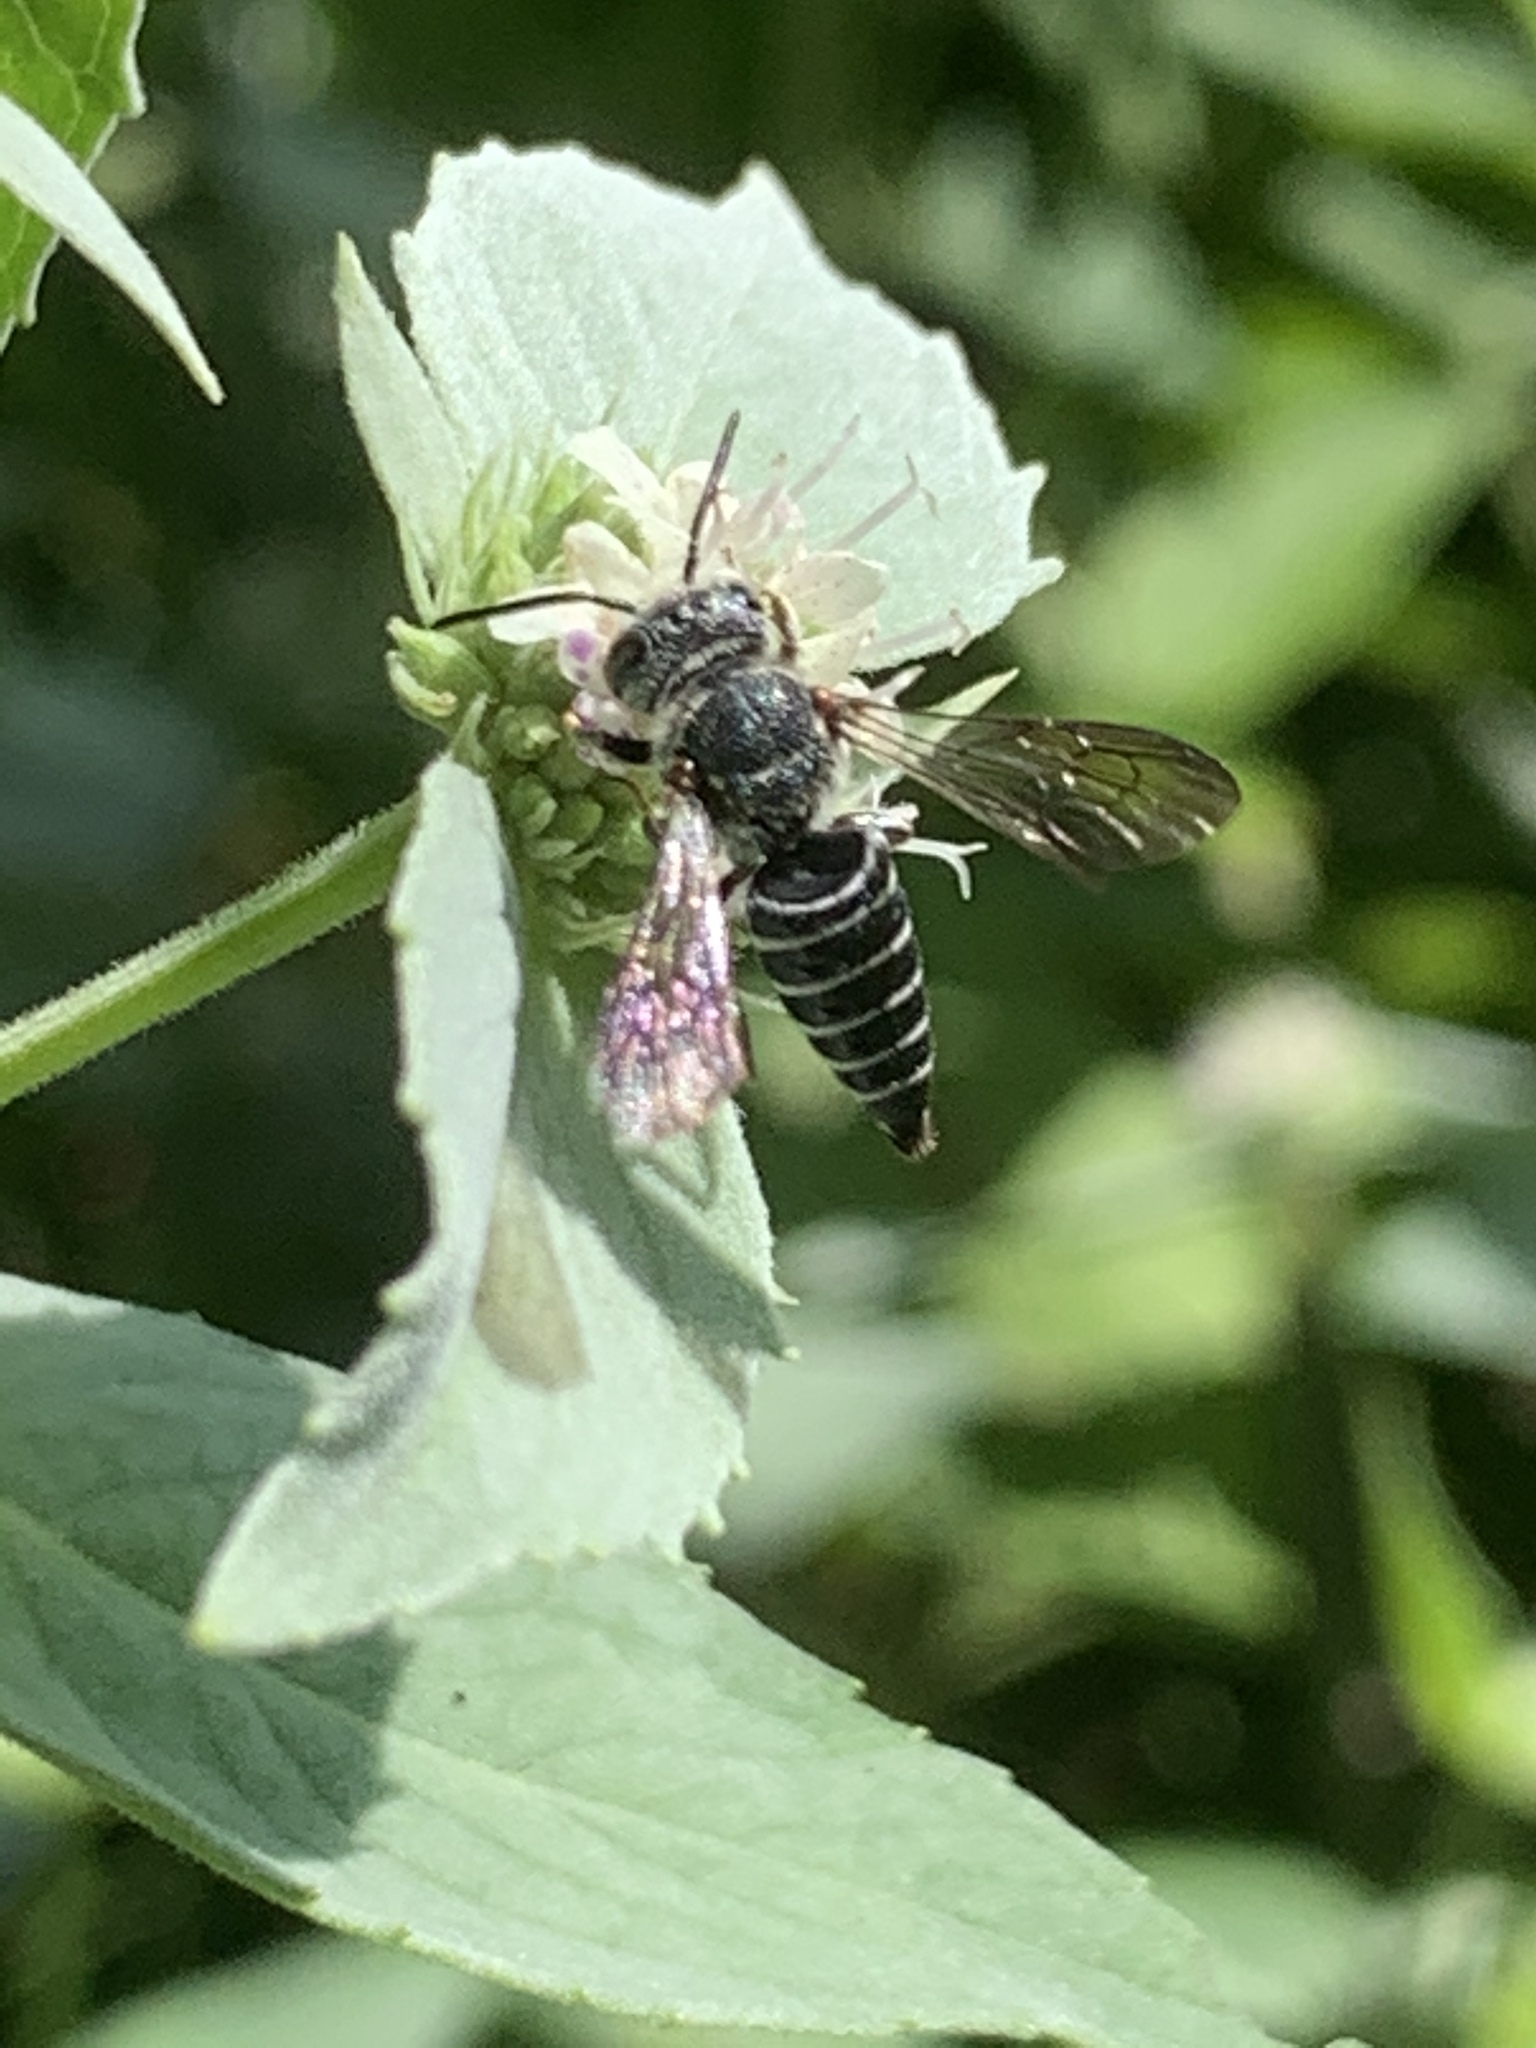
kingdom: Animalia
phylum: Arthropoda
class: Insecta
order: Hymenoptera
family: Megachilidae
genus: Coelioxys
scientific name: Coelioxys modestus
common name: Modest sharptail
